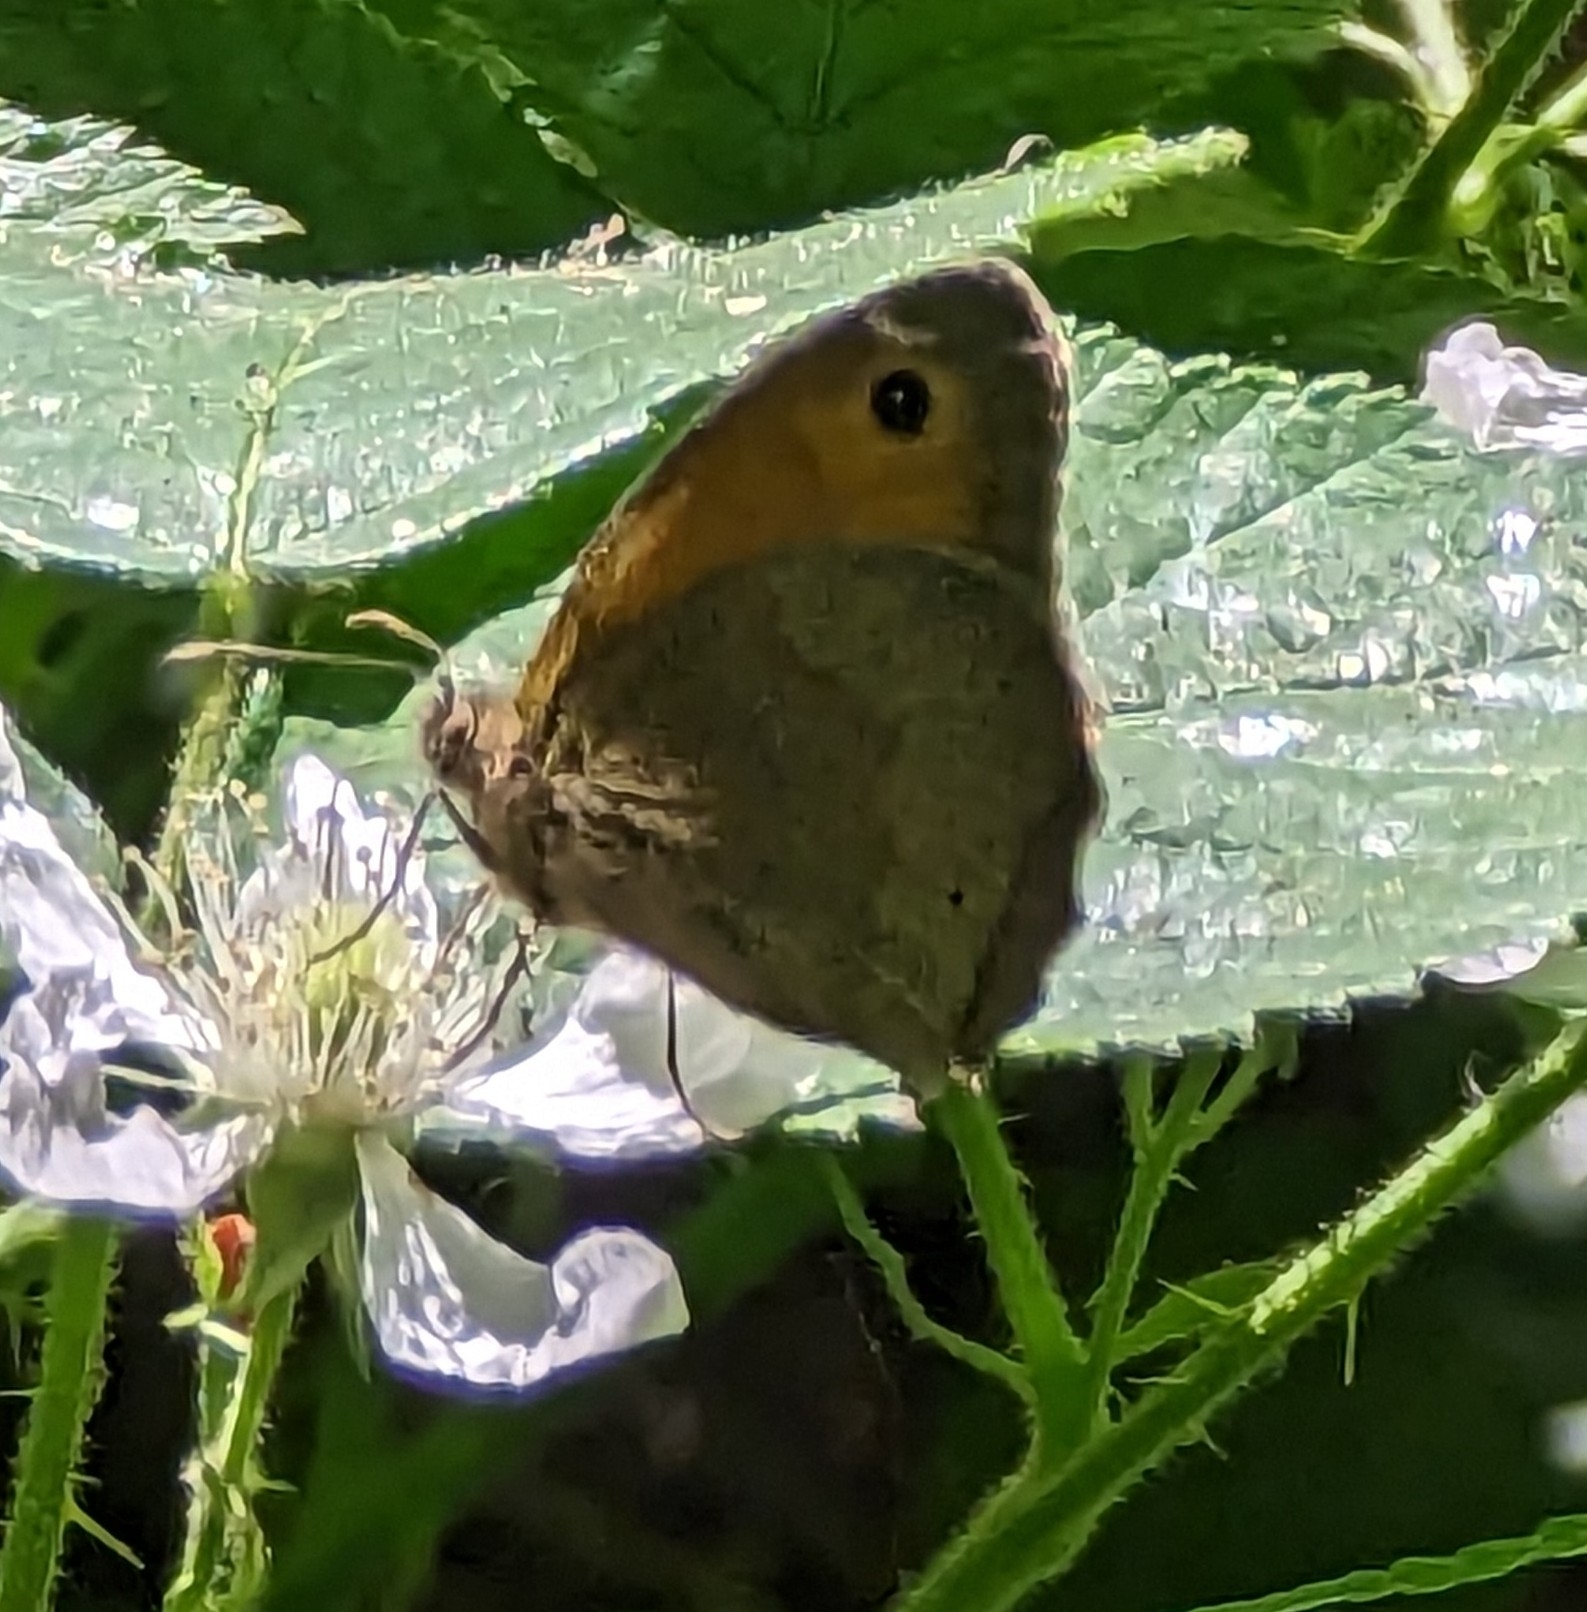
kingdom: Animalia
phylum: Arthropoda
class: Insecta
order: Lepidoptera
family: Nymphalidae
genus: Maniola
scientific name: Maniola jurtina
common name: Meadow brown
